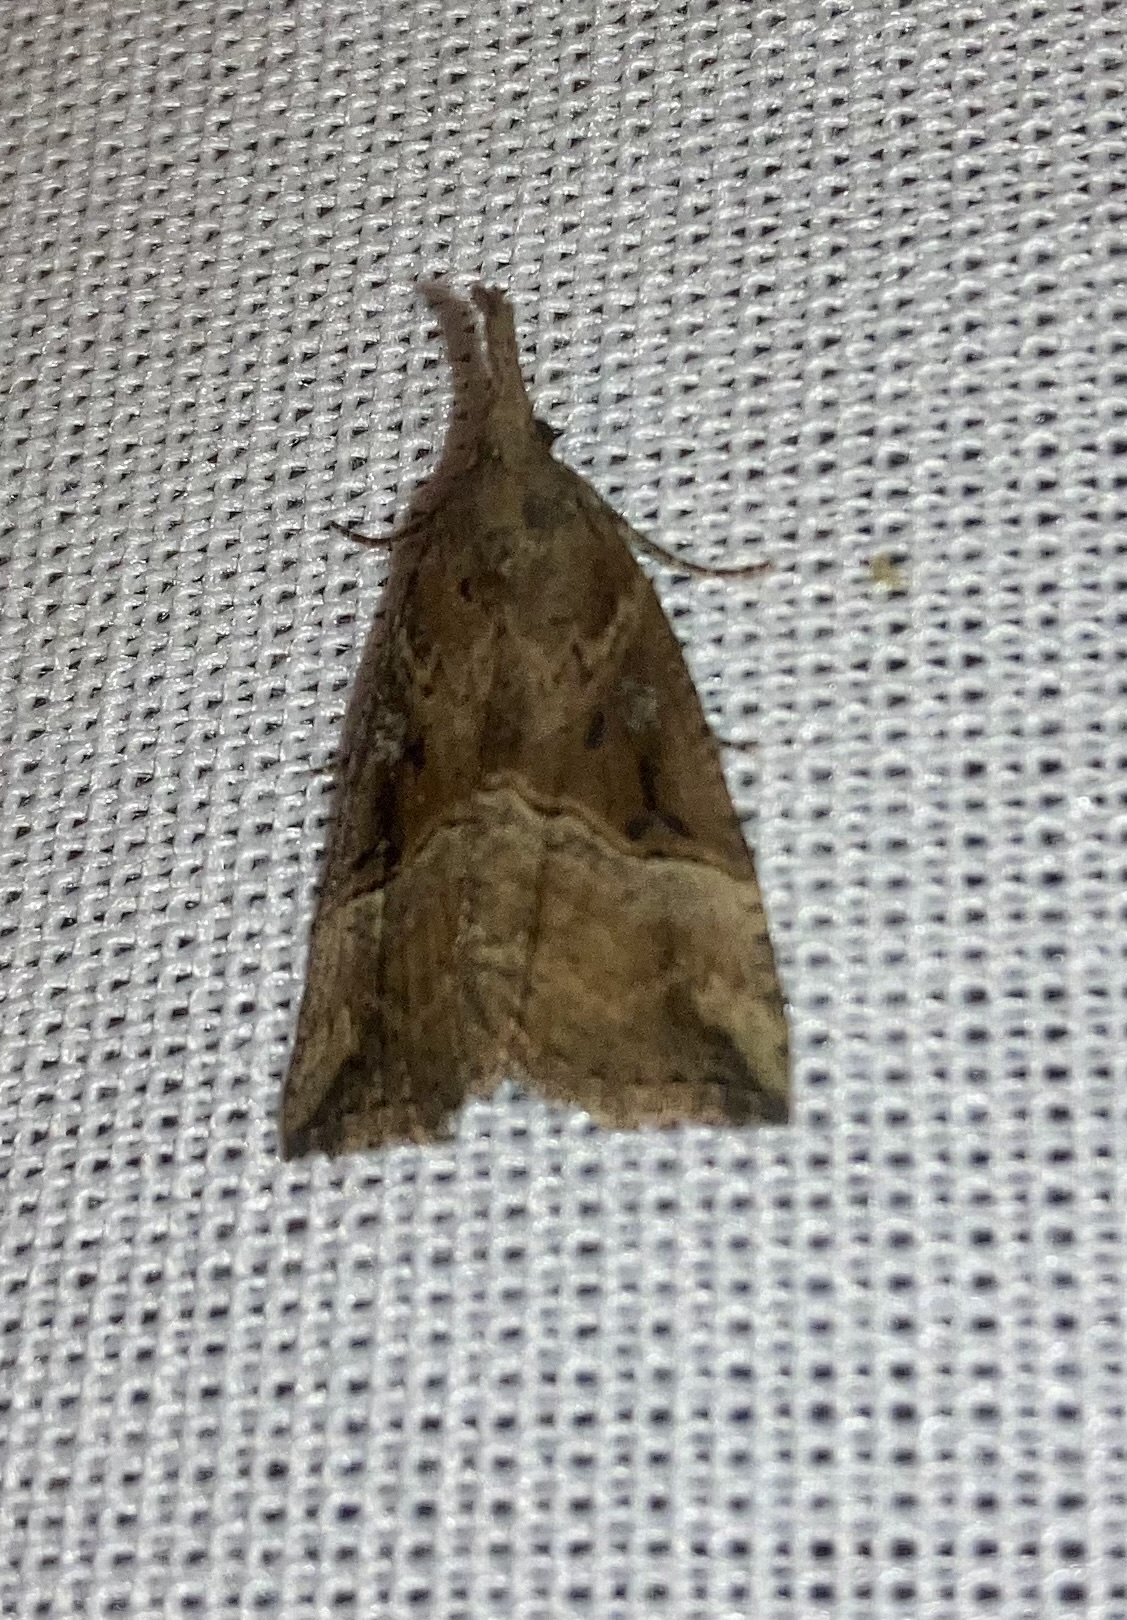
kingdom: Animalia
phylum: Arthropoda
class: Insecta
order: Lepidoptera
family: Erebidae
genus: Hypena
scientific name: Hypena rostralis
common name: Buttoned snout
